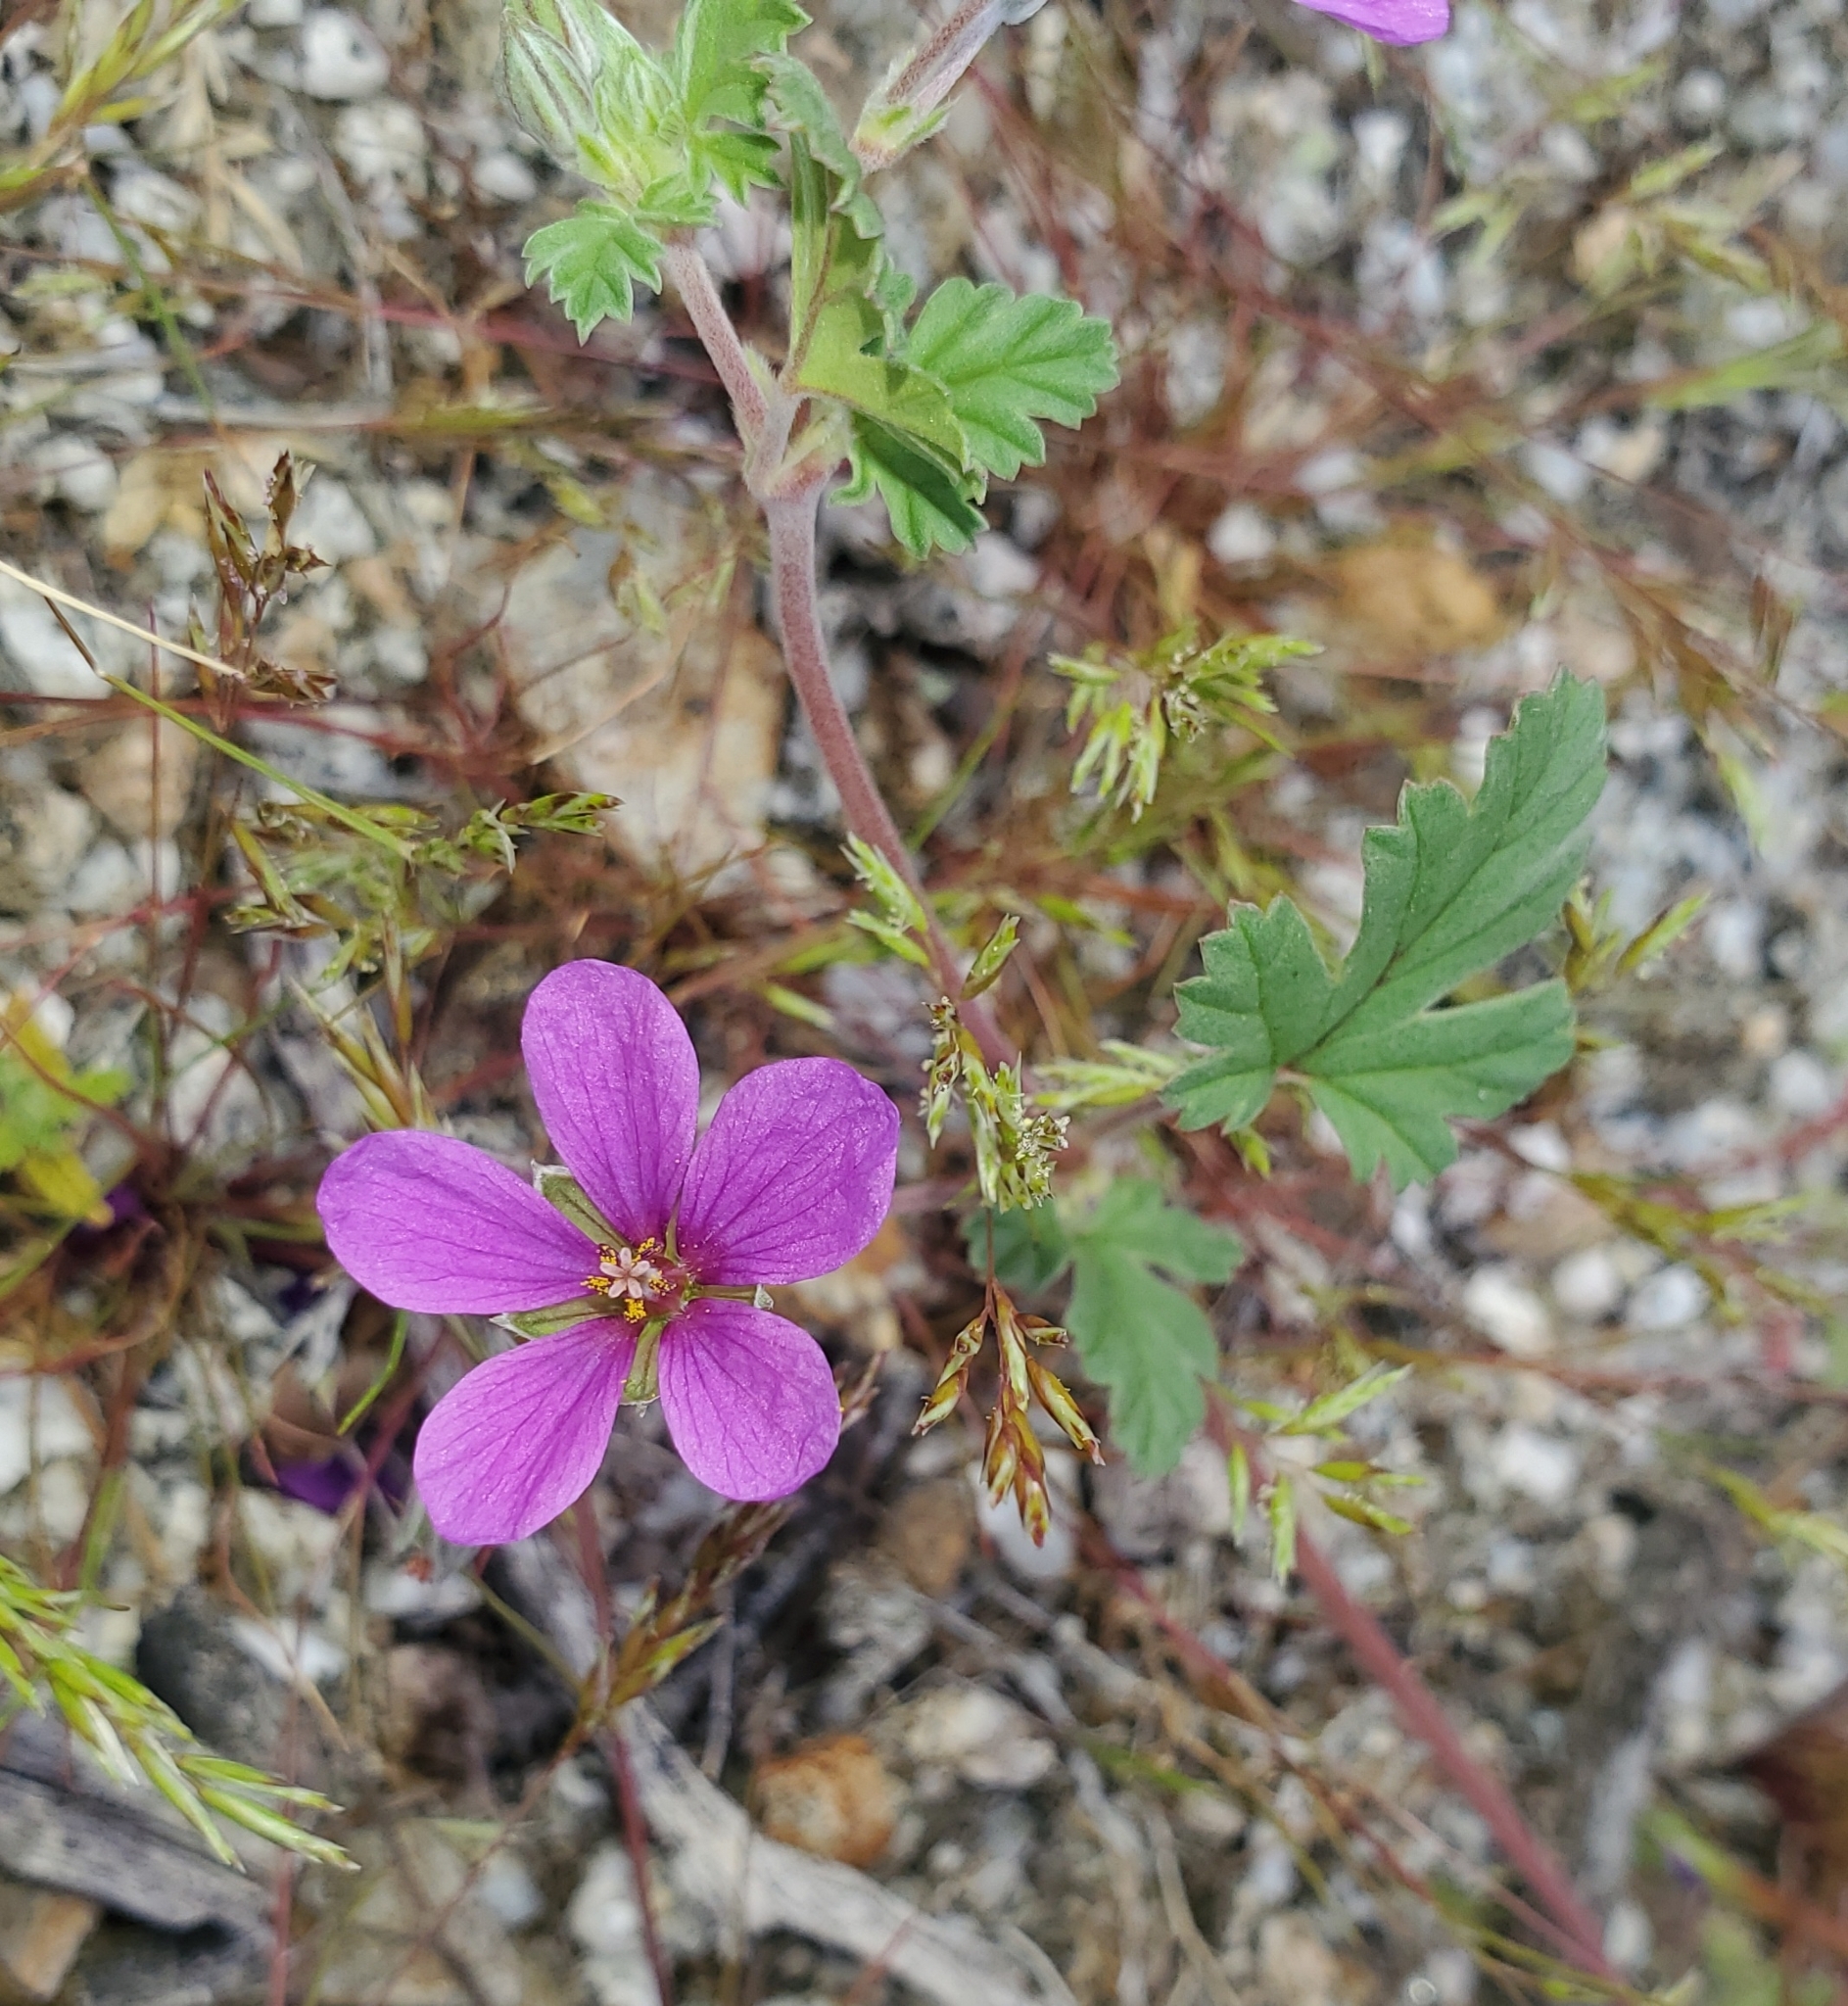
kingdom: Plantae
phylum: Tracheophyta
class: Magnoliopsida
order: Geraniales
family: Geraniaceae
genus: Erodium
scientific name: Erodium texanum
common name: Texas stork's-bill
